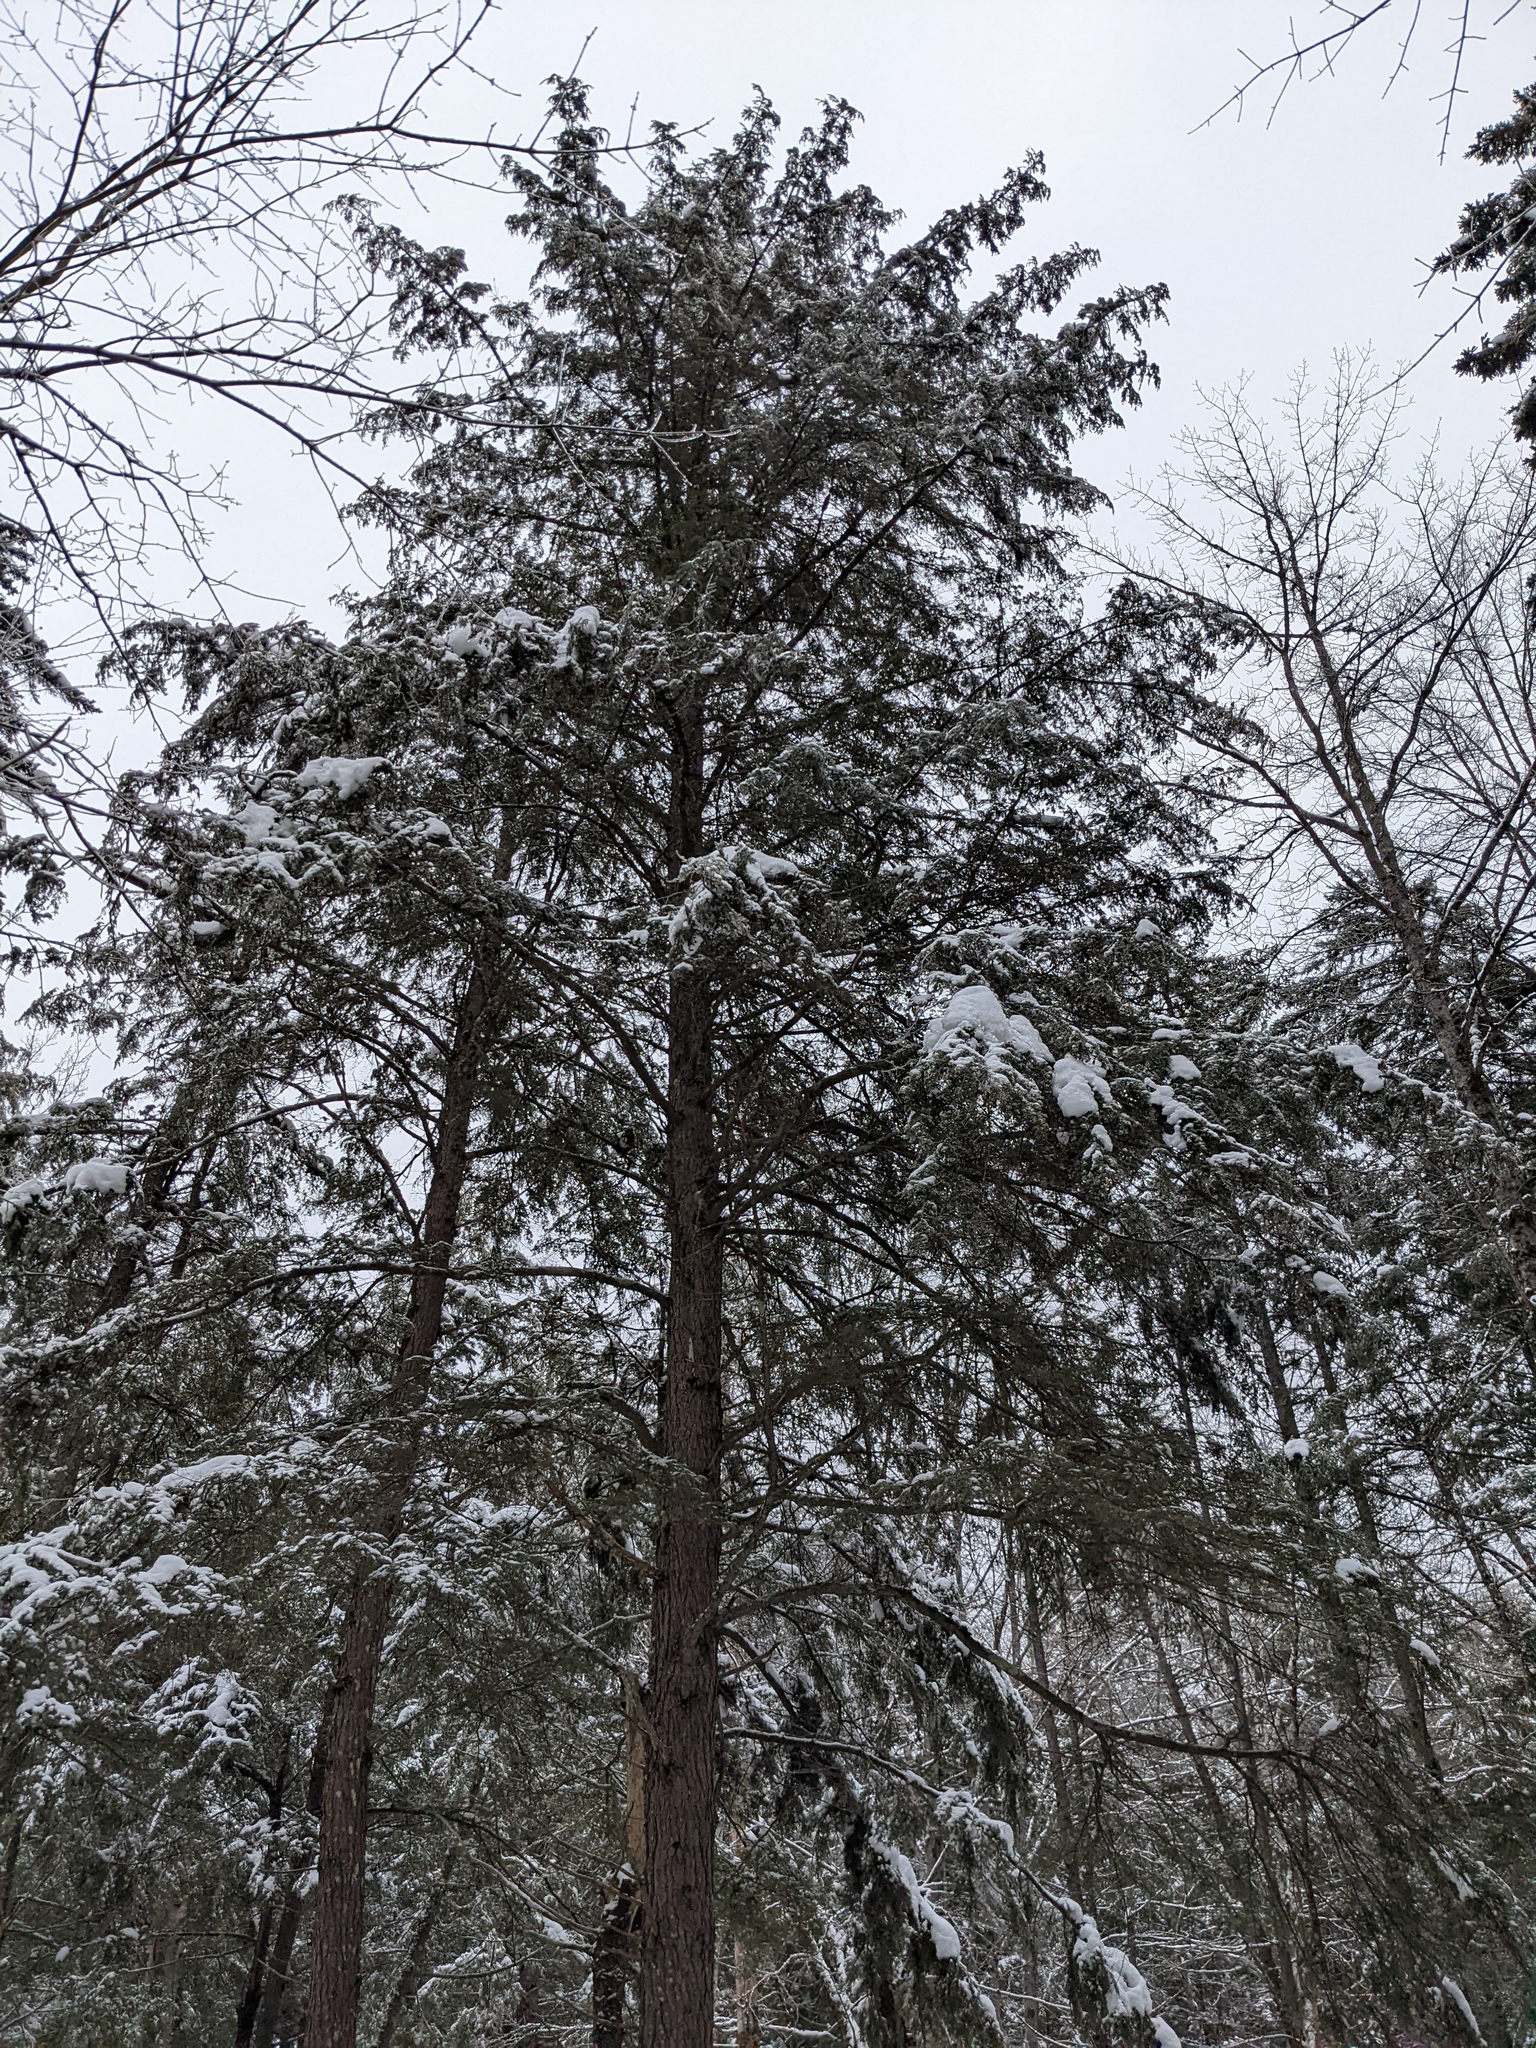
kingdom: Plantae
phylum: Tracheophyta
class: Pinopsida
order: Pinales
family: Pinaceae
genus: Tsuga
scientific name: Tsuga canadensis
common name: Eastern hemlock
